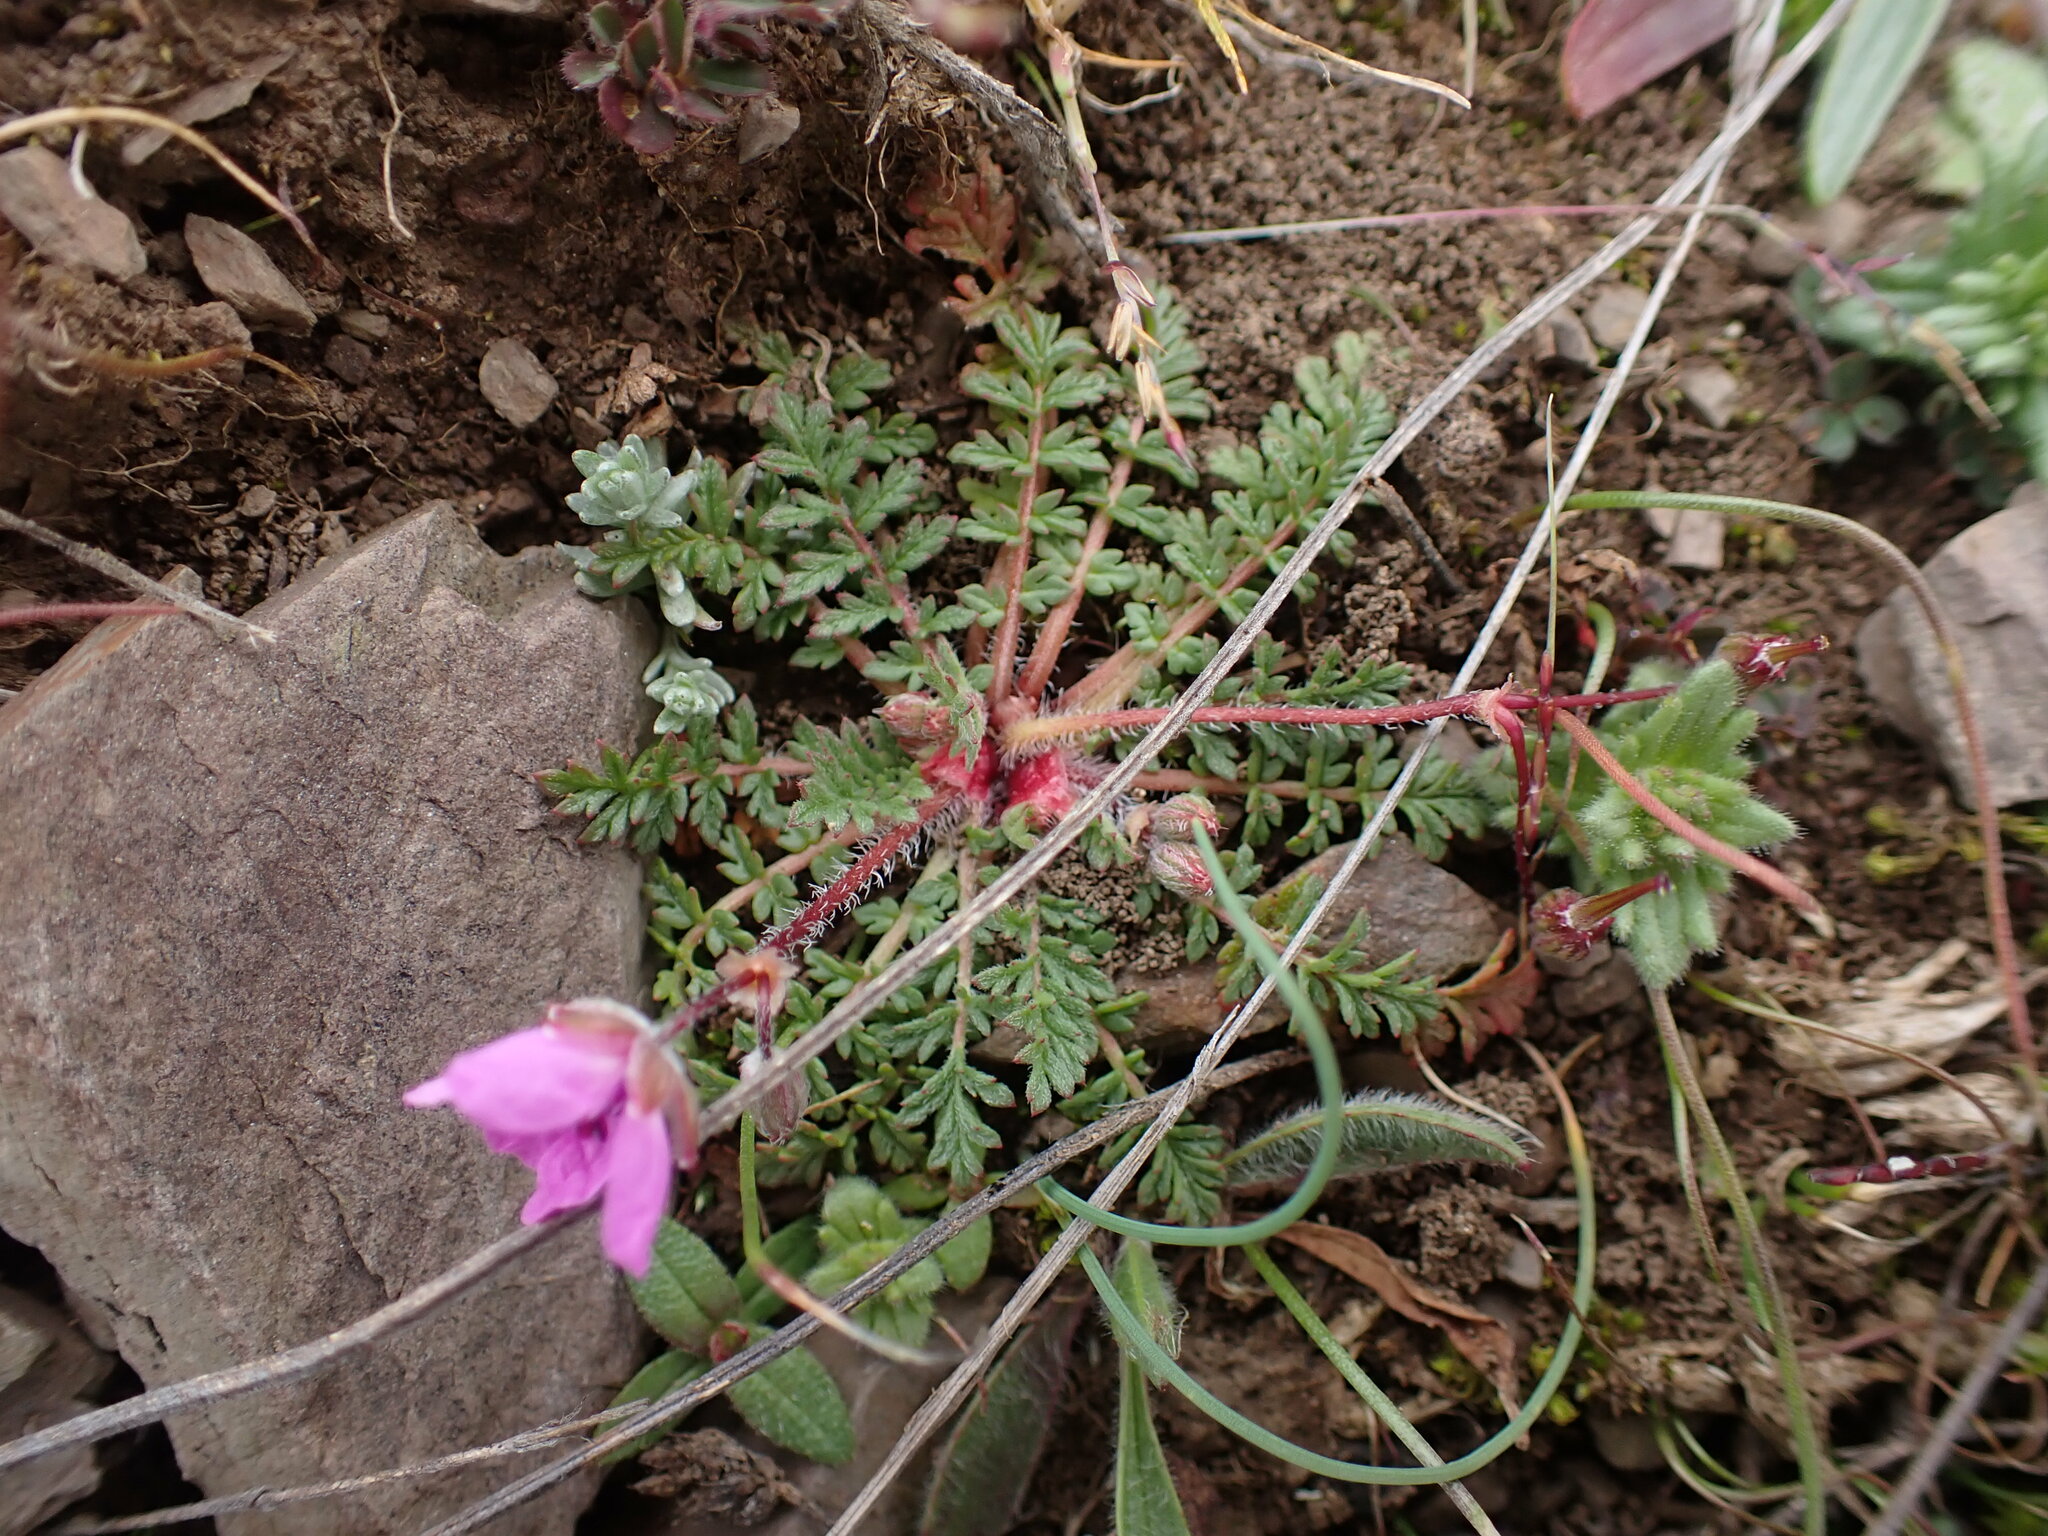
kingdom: Plantae
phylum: Tracheophyta
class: Magnoliopsida
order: Geraniales
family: Geraniaceae
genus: Erodium
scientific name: Erodium cicutarium
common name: Common stork's-bill
